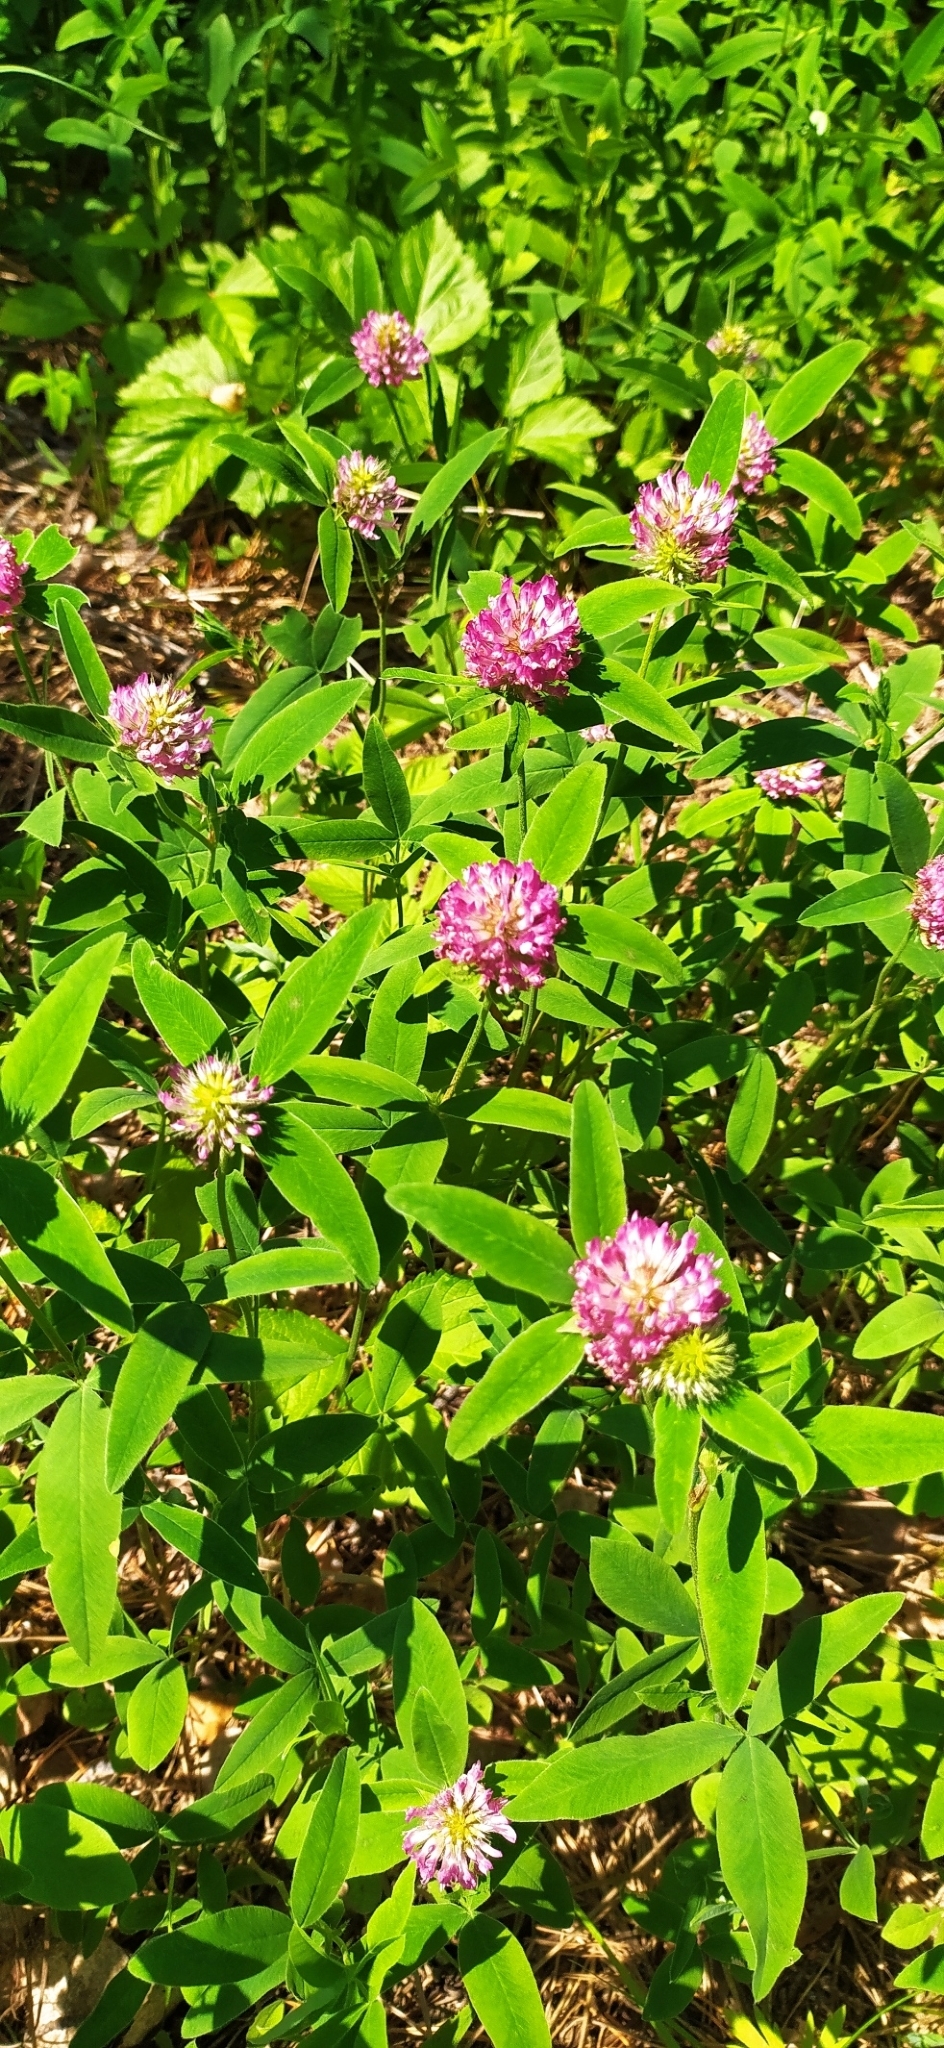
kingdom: Plantae
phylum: Tracheophyta
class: Magnoliopsida
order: Fabales
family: Fabaceae
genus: Trifolium
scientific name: Trifolium medium
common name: Zigzag clover
